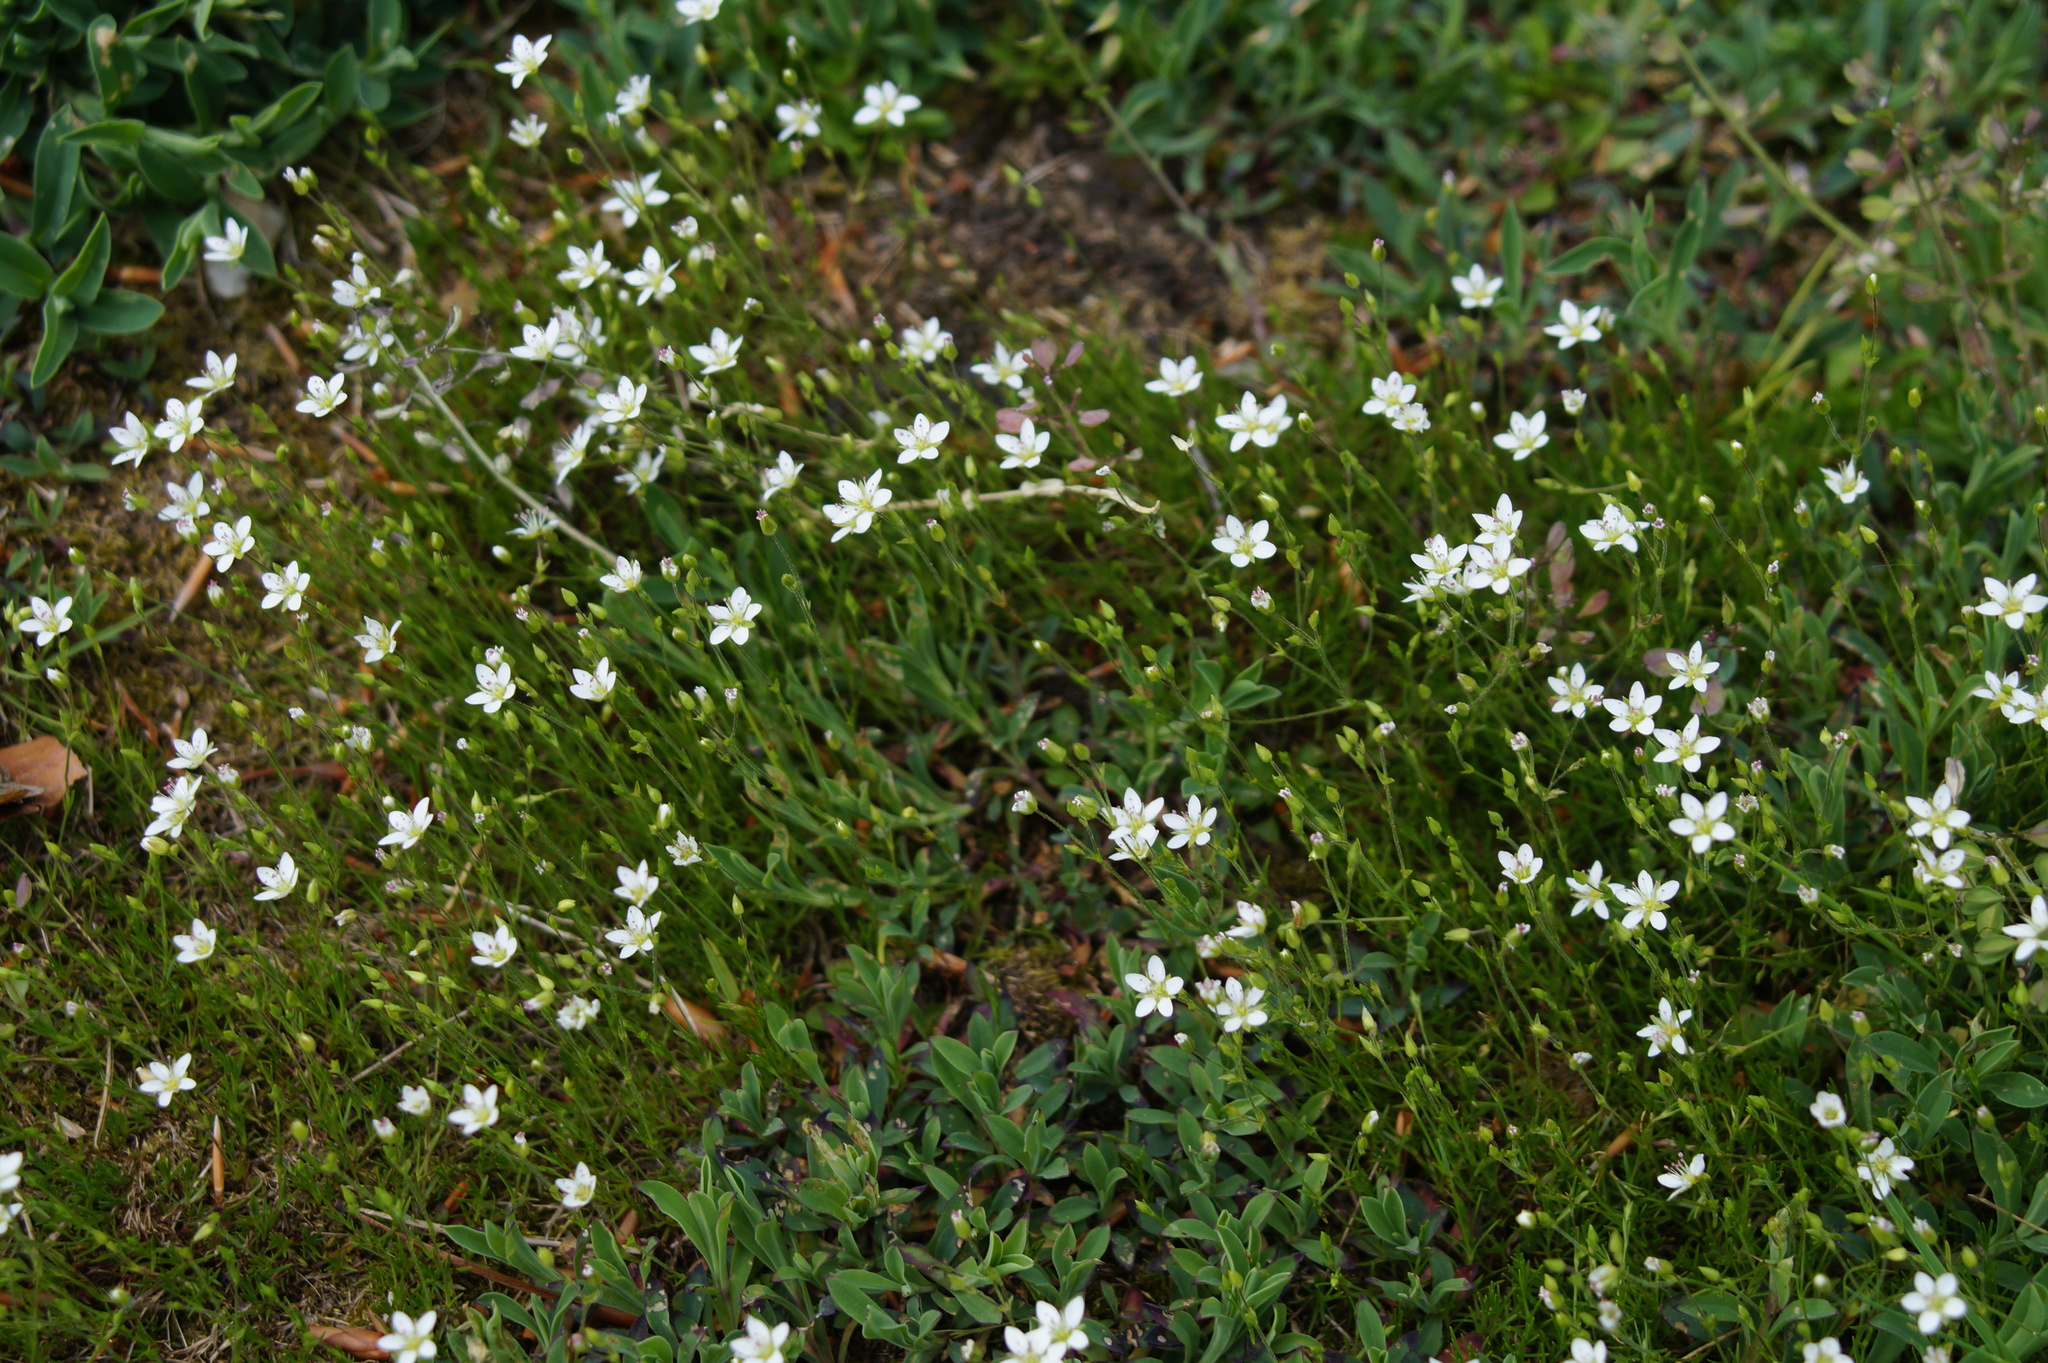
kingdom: Plantae
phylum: Tracheophyta
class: Magnoliopsida
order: Caryophyllales
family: Caryophyllaceae
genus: Sabulina
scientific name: Sabulina caespitosa
